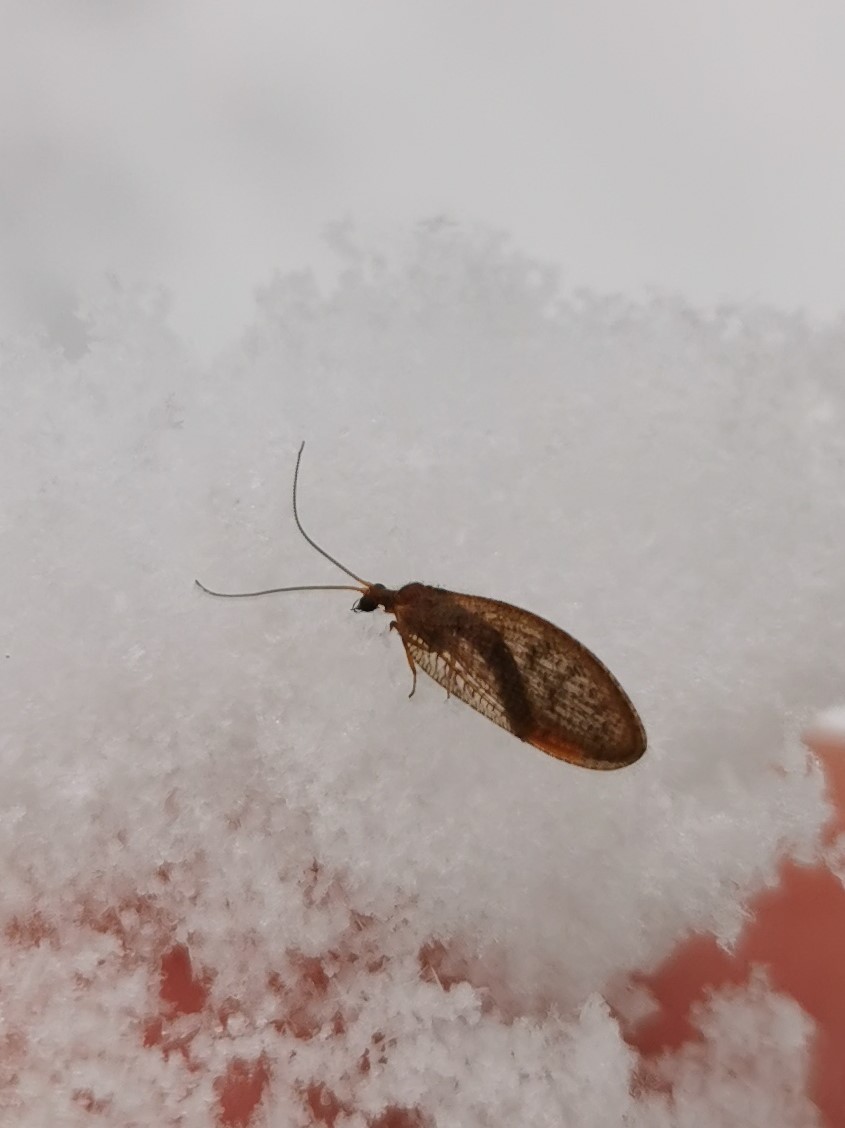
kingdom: Animalia
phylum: Arthropoda
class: Insecta
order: Neuroptera
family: Hemerobiidae
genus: Hemerobius
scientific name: Hemerobius stigma
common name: Brown pine lacewing
